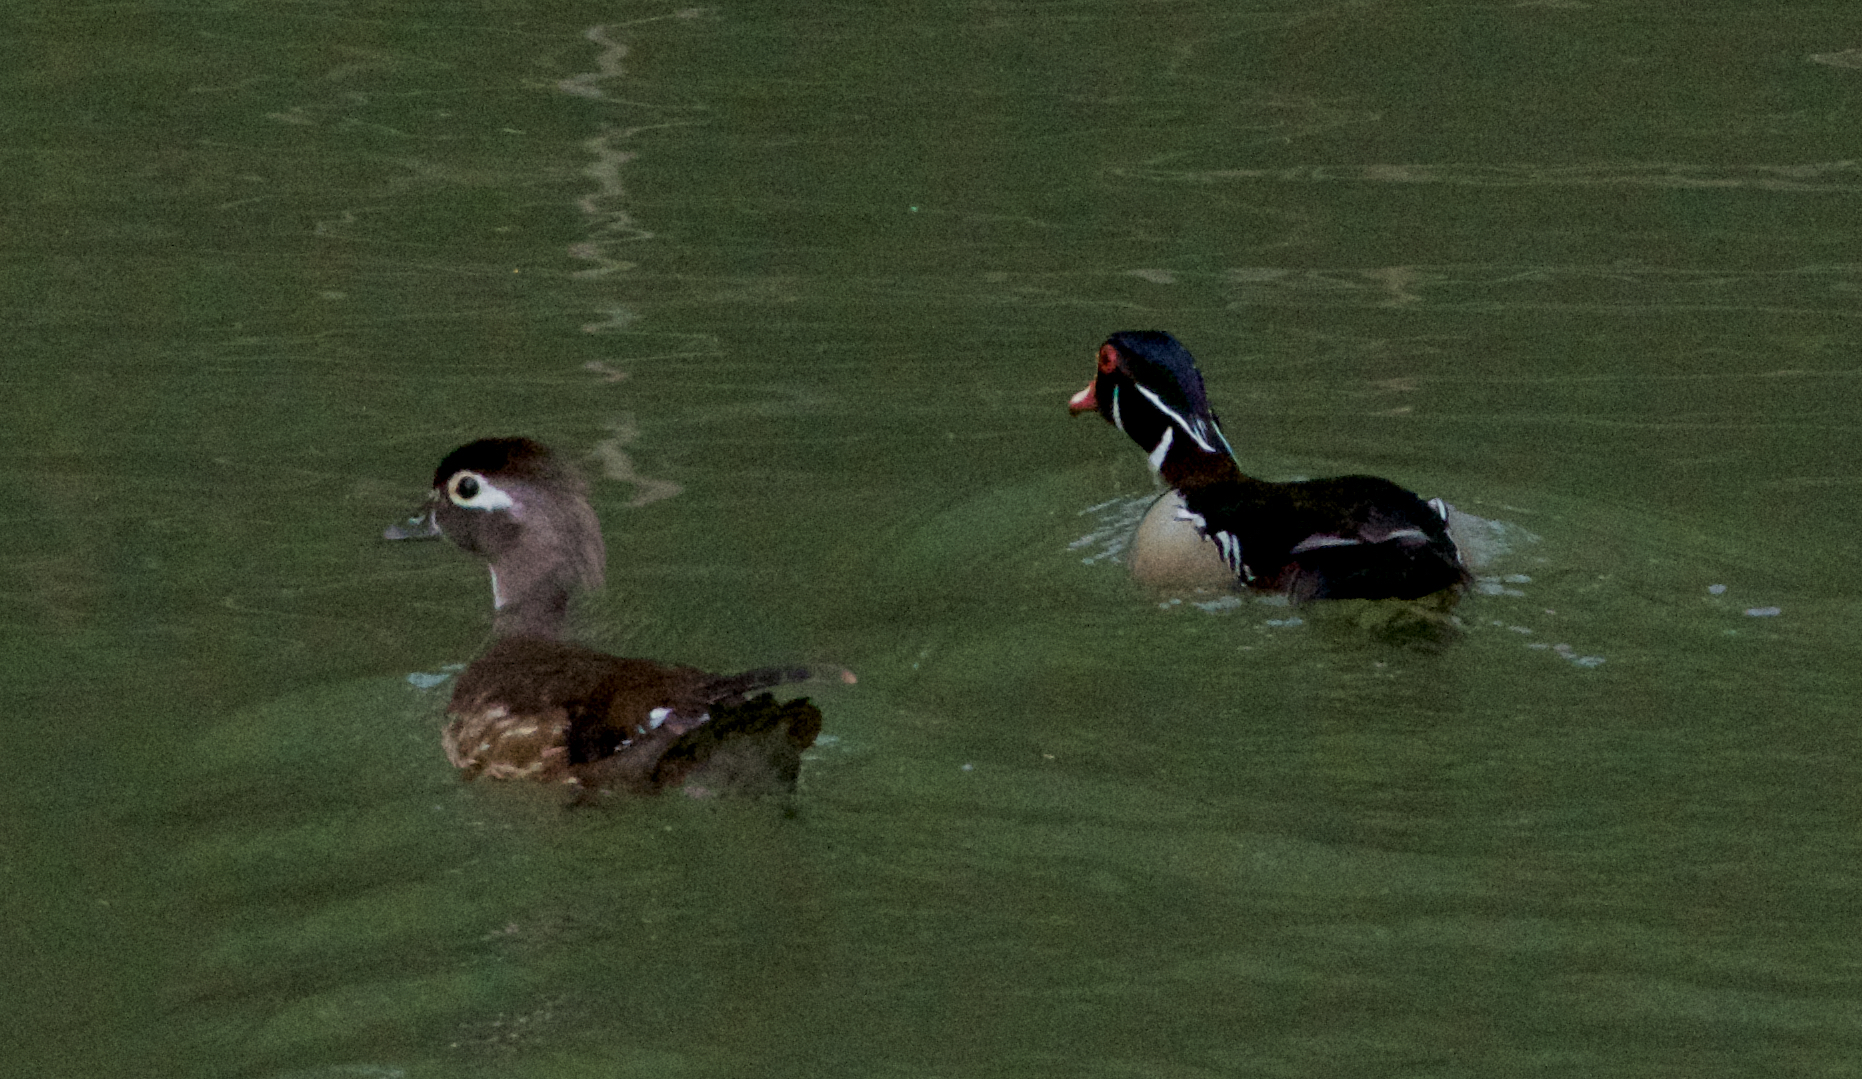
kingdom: Animalia
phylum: Chordata
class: Aves
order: Anseriformes
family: Anatidae
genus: Aix
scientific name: Aix sponsa
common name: Wood duck
